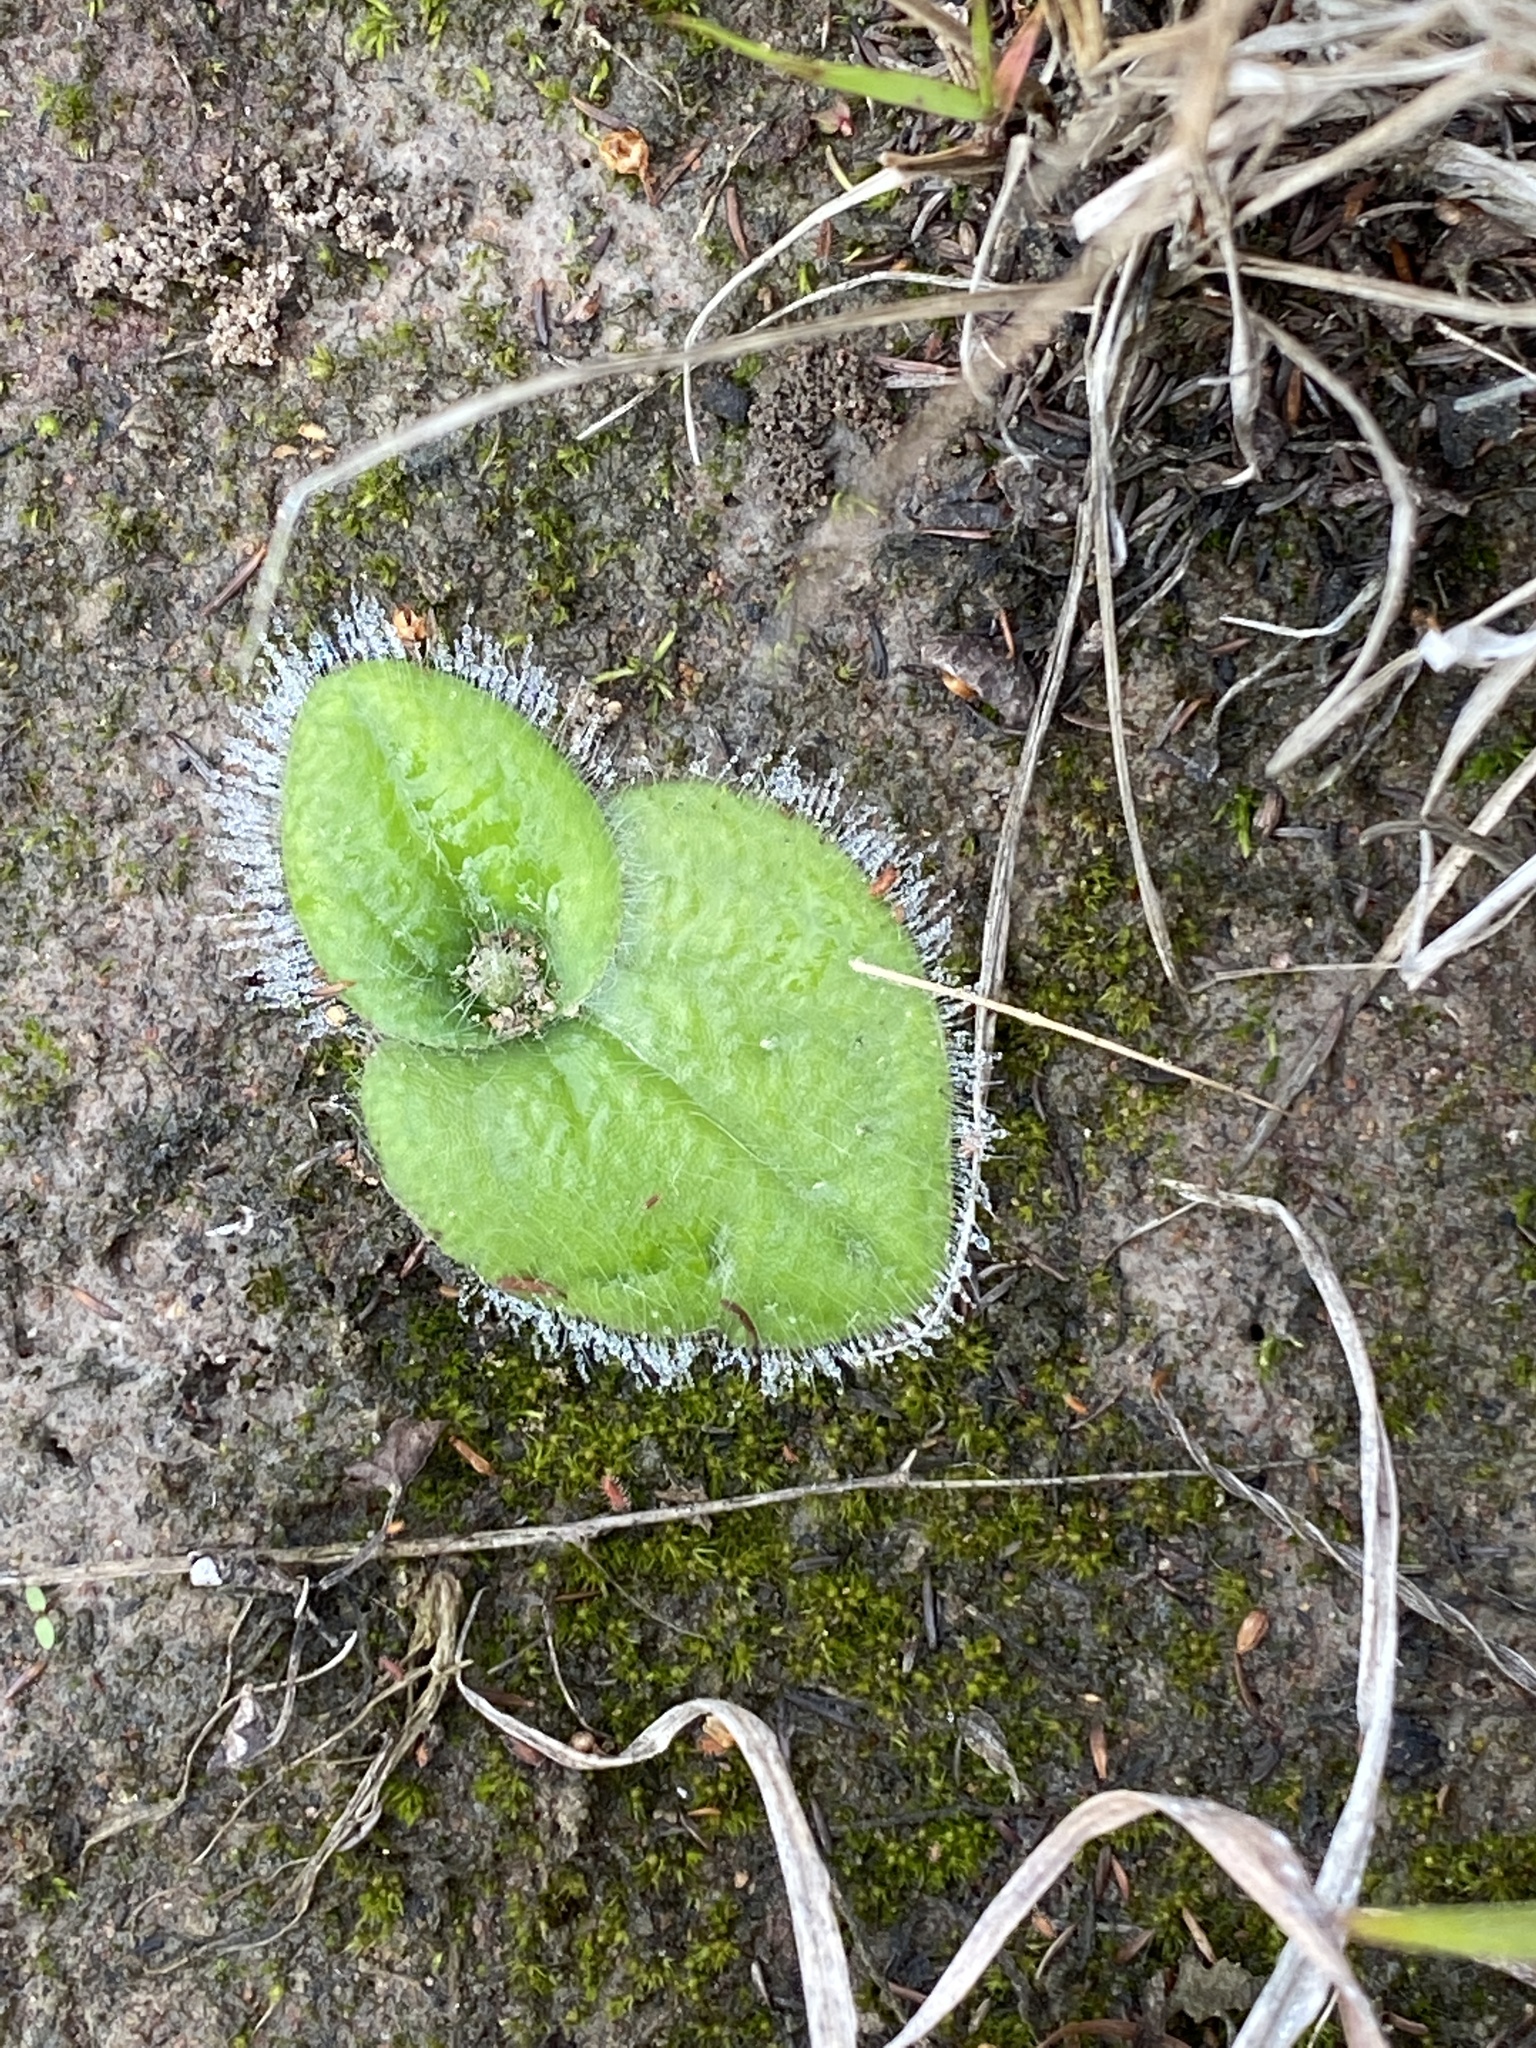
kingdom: Plantae
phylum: Tracheophyta
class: Liliopsida
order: Asparagales
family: Orchidaceae
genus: Holothrix
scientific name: Holothrix villosa
